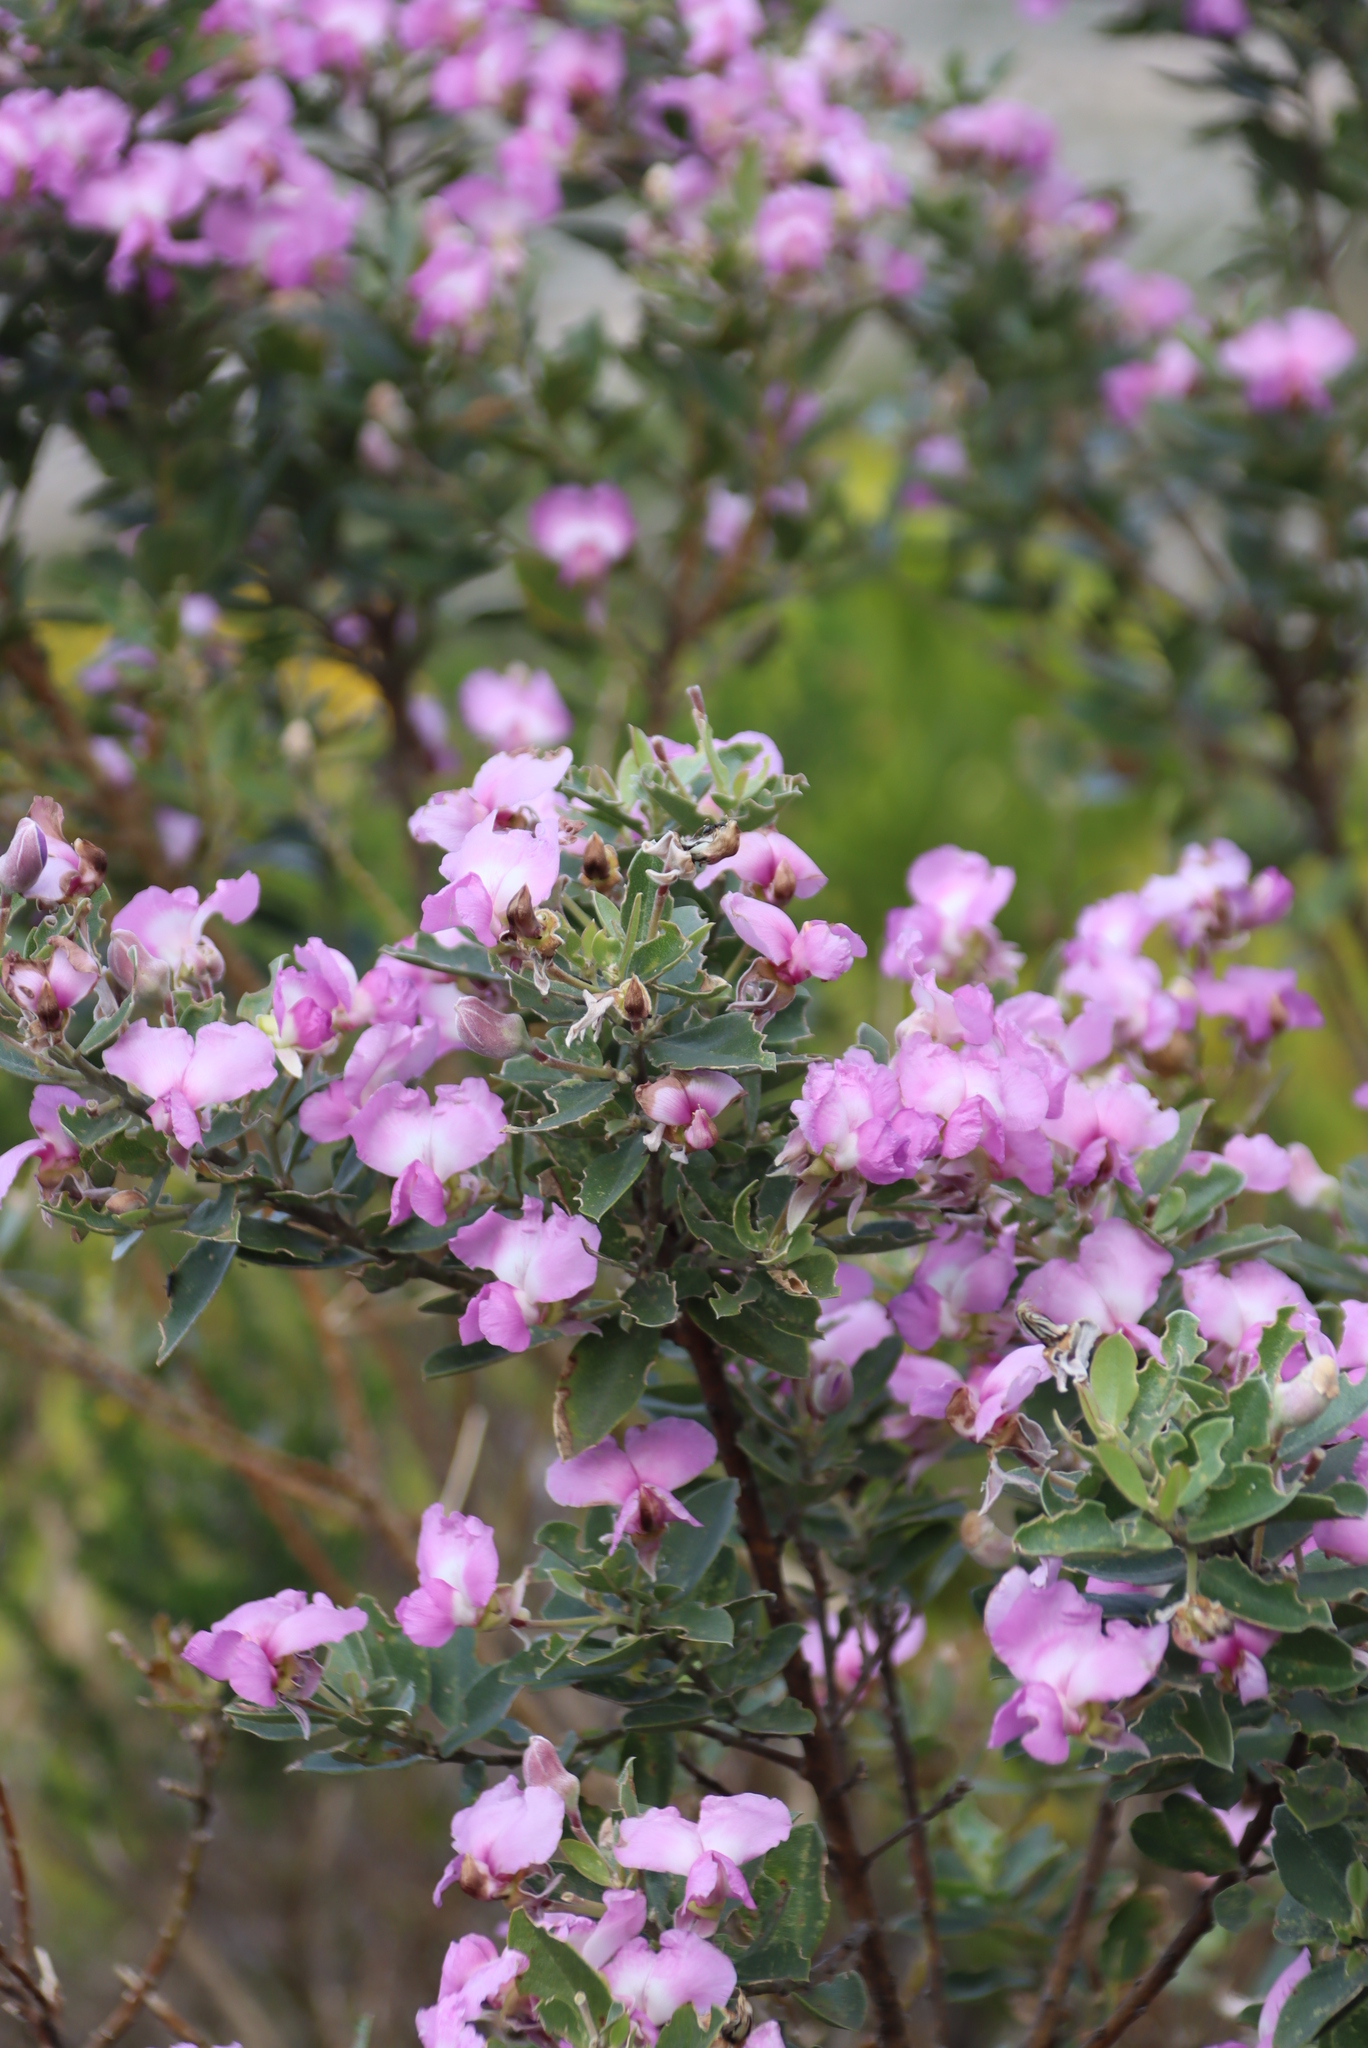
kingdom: Plantae
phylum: Tracheophyta
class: Magnoliopsida
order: Fabales
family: Fabaceae
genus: Podalyria
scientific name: Podalyria calyptrata
